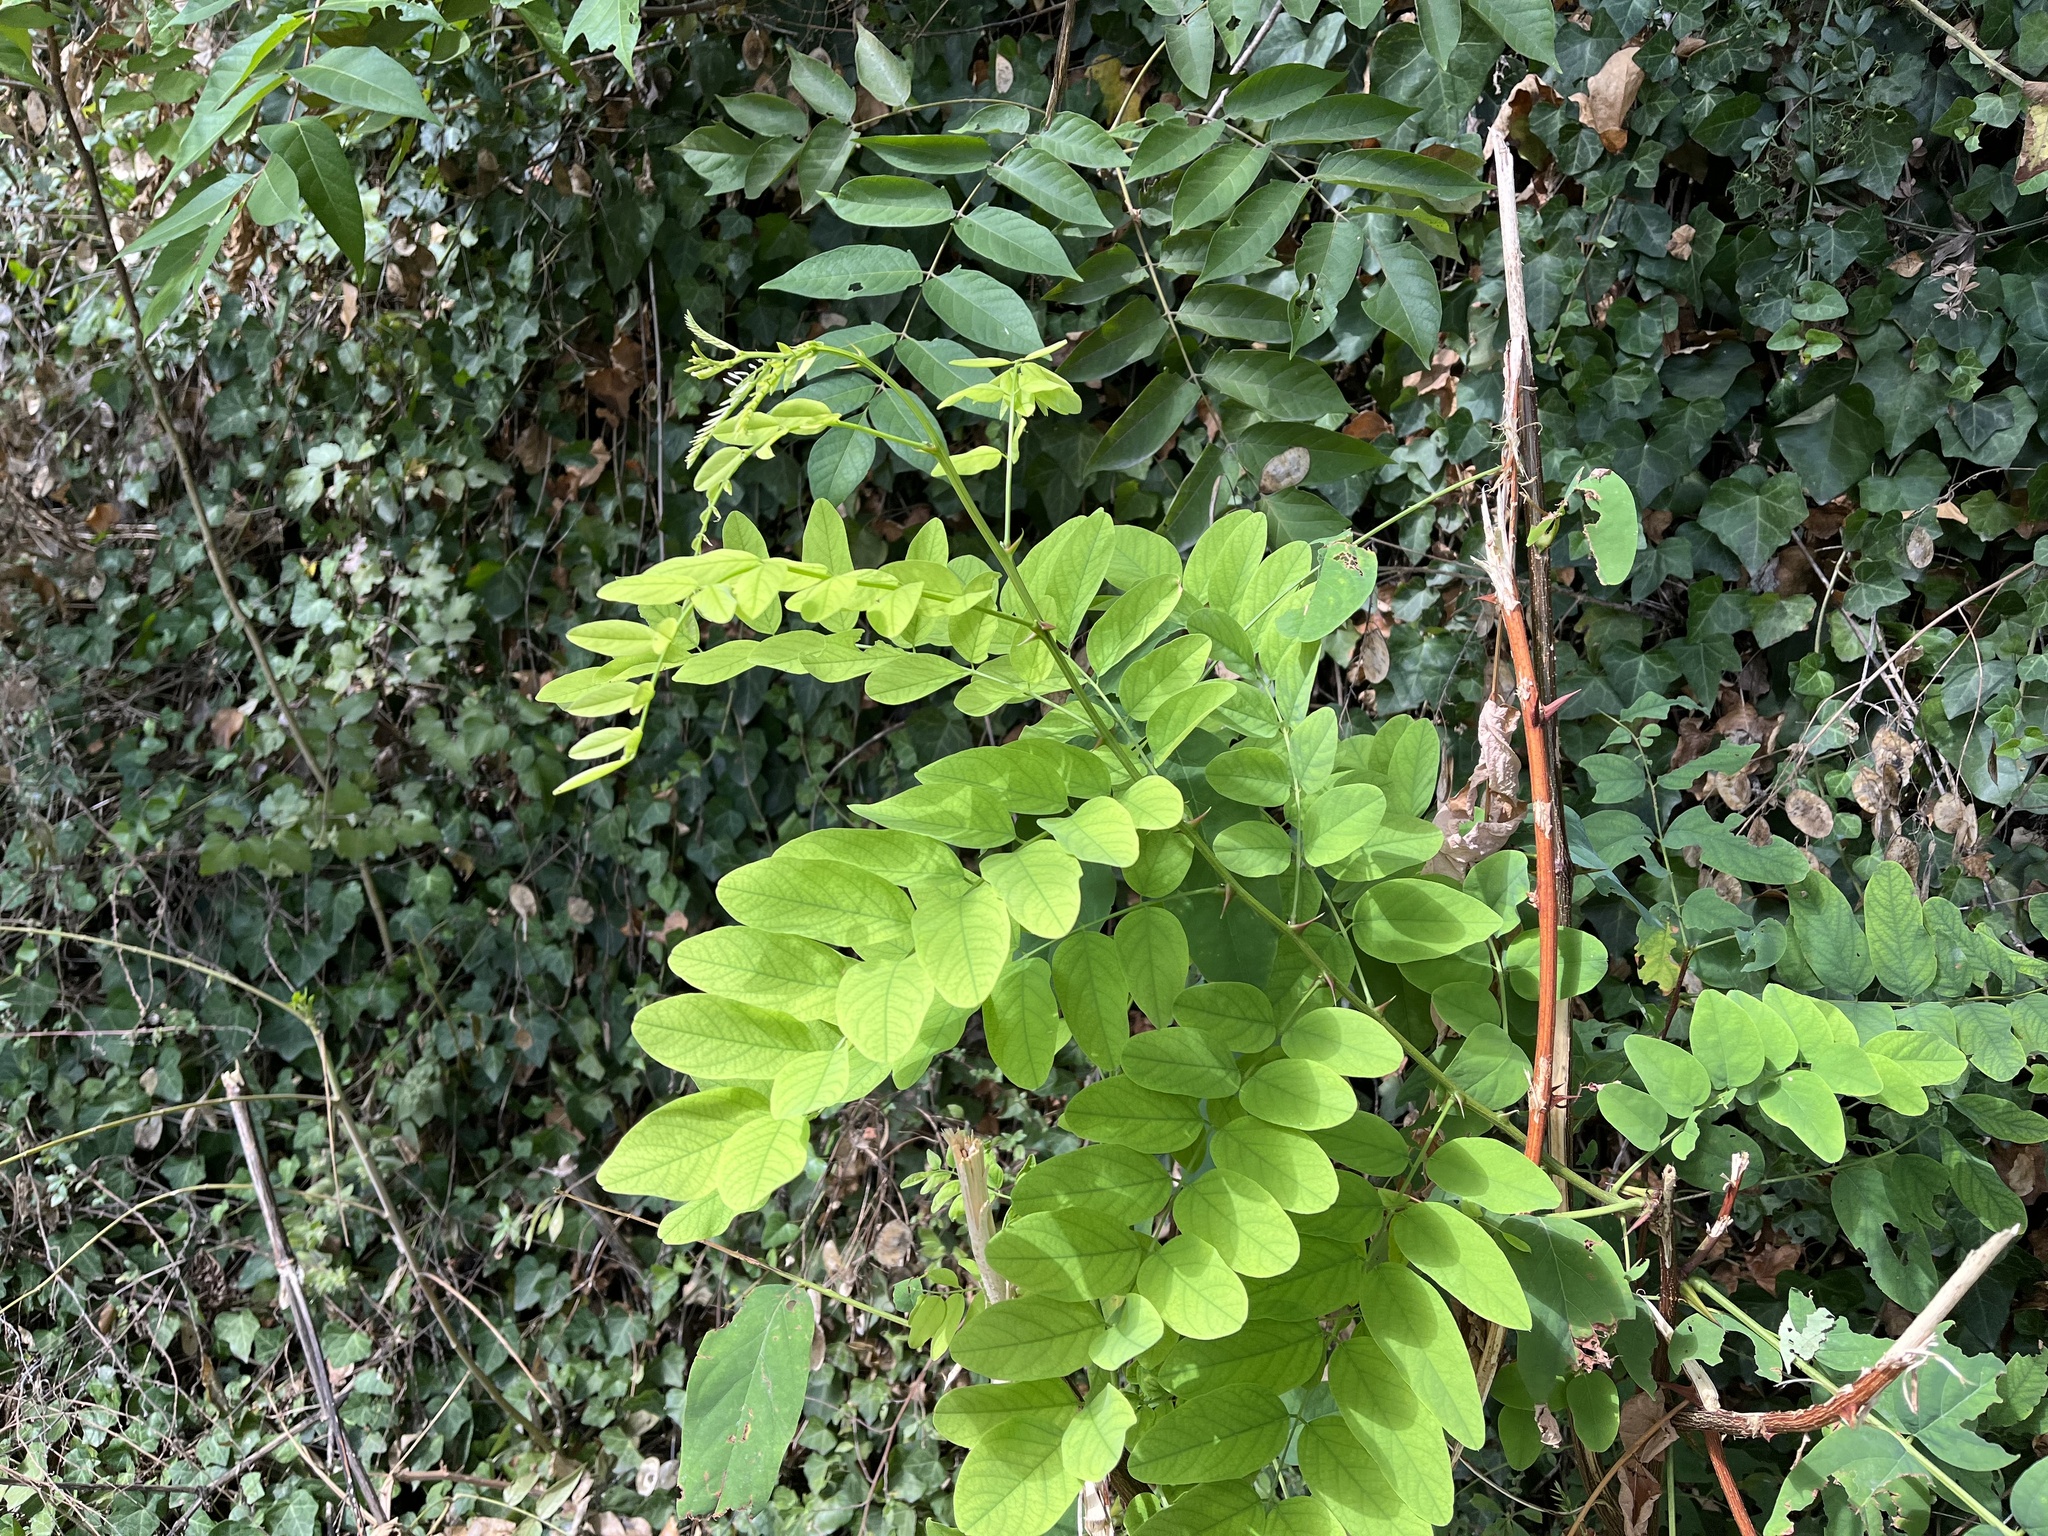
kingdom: Plantae
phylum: Tracheophyta
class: Magnoliopsida
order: Fabales
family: Fabaceae
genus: Robinia
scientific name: Robinia pseudoacacia
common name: Black locust
